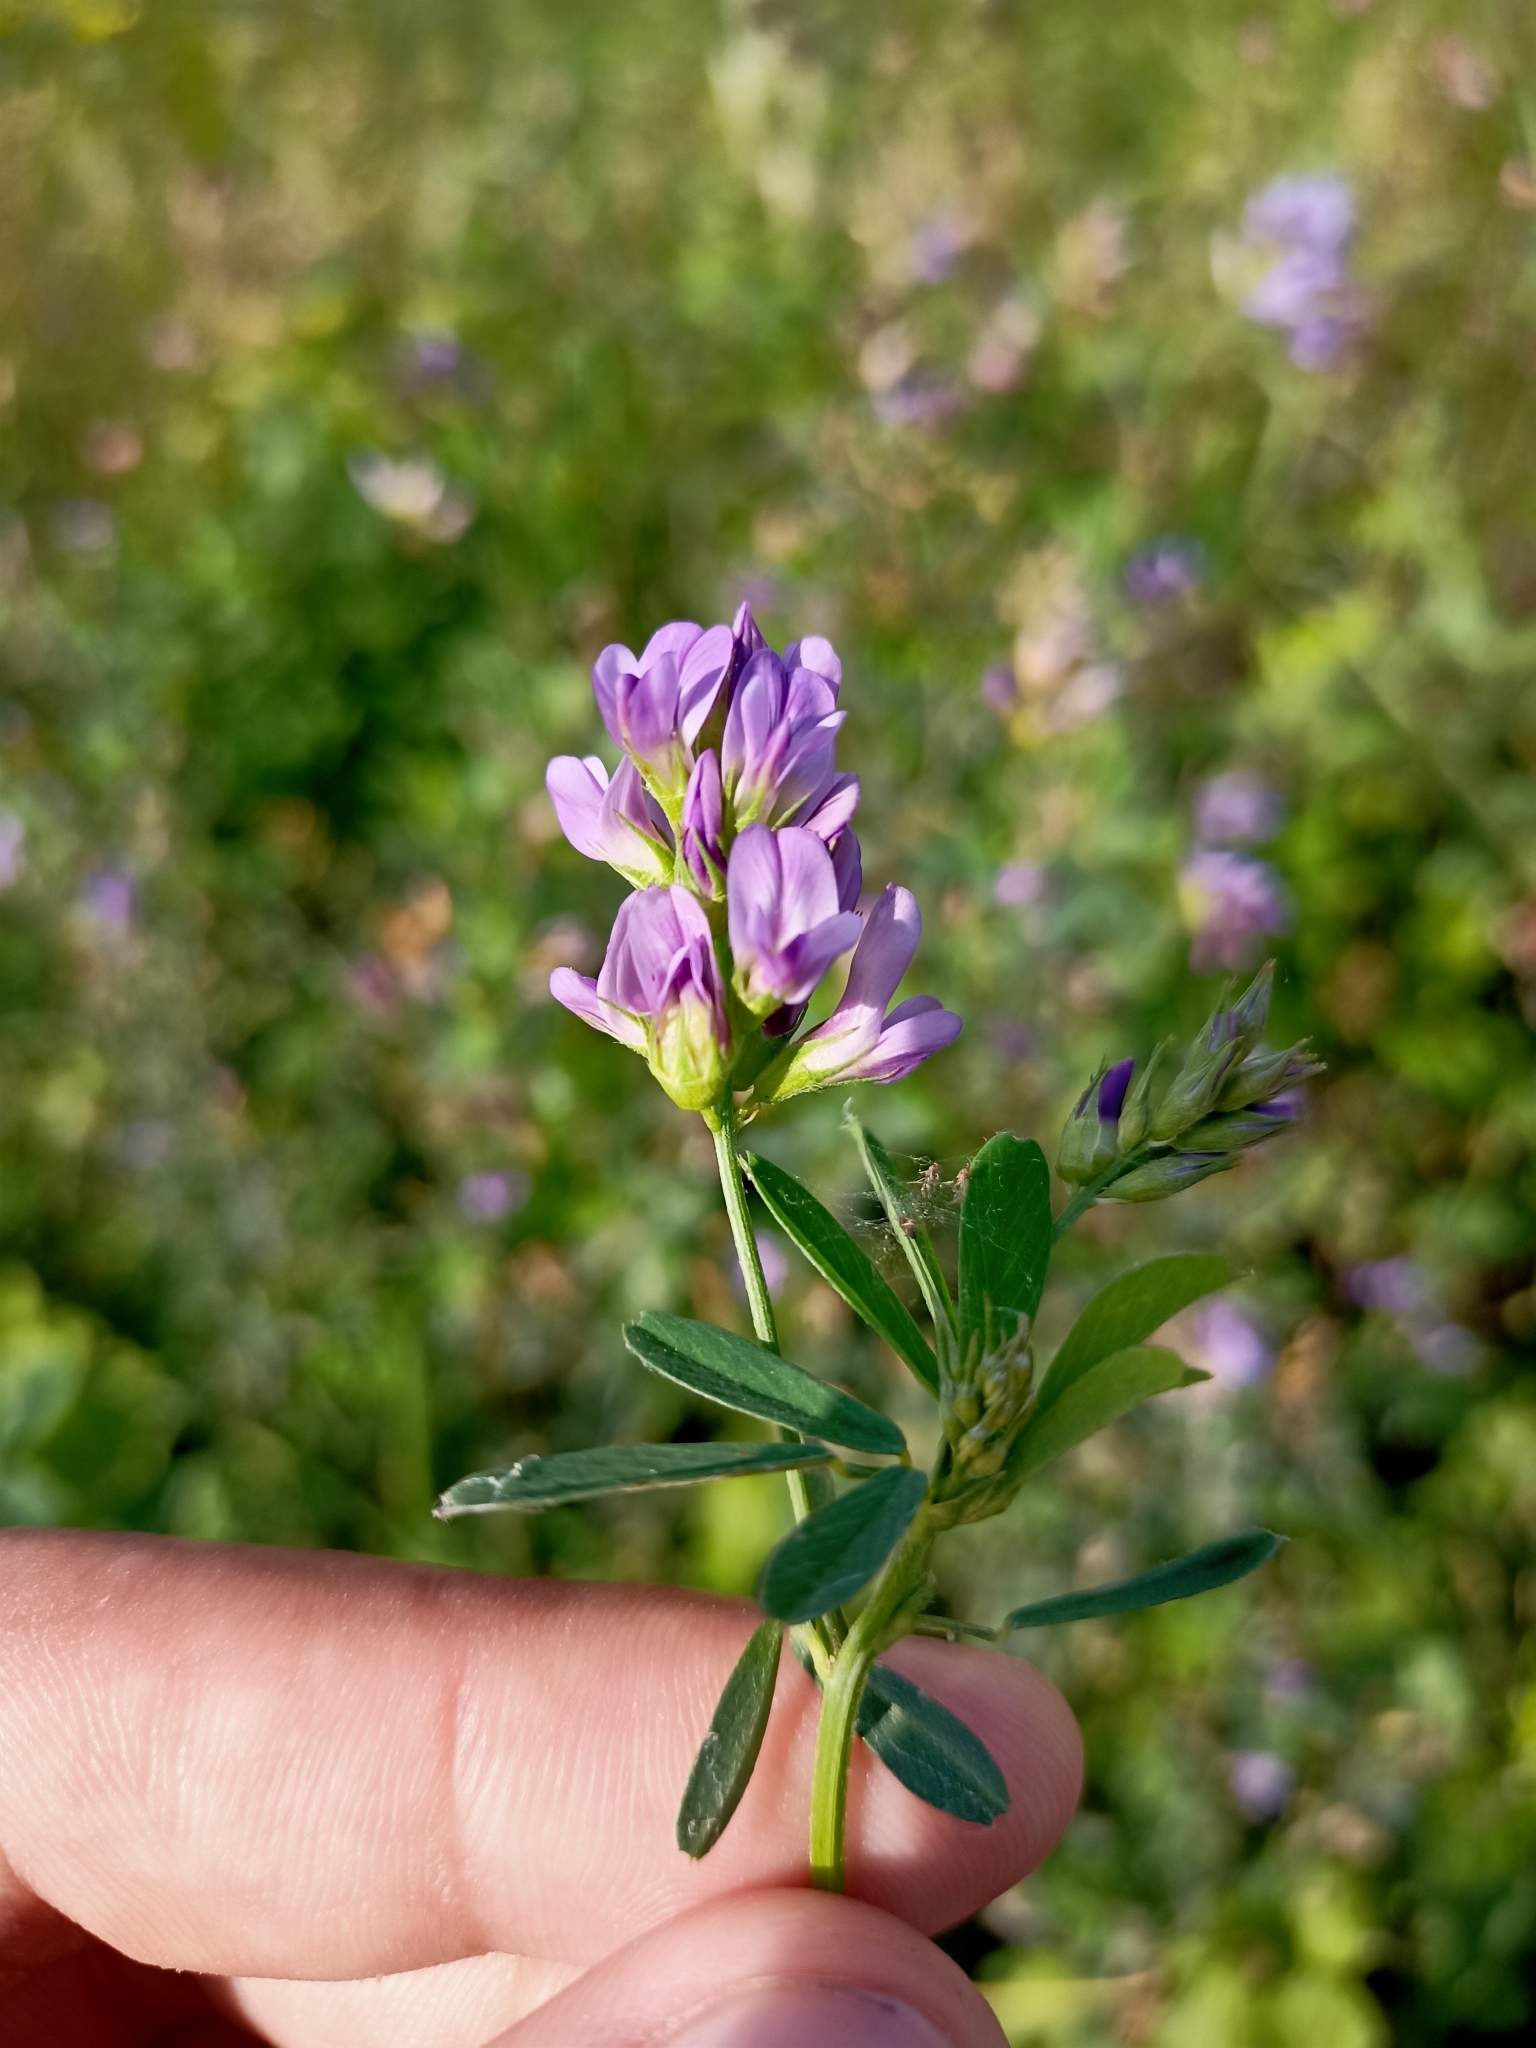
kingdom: Plantae
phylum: Tracheophyta
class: Magnoliopsida
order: Fabales
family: Fabaceae
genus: Medicago
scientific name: Medicago varia
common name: Sand lucerne
